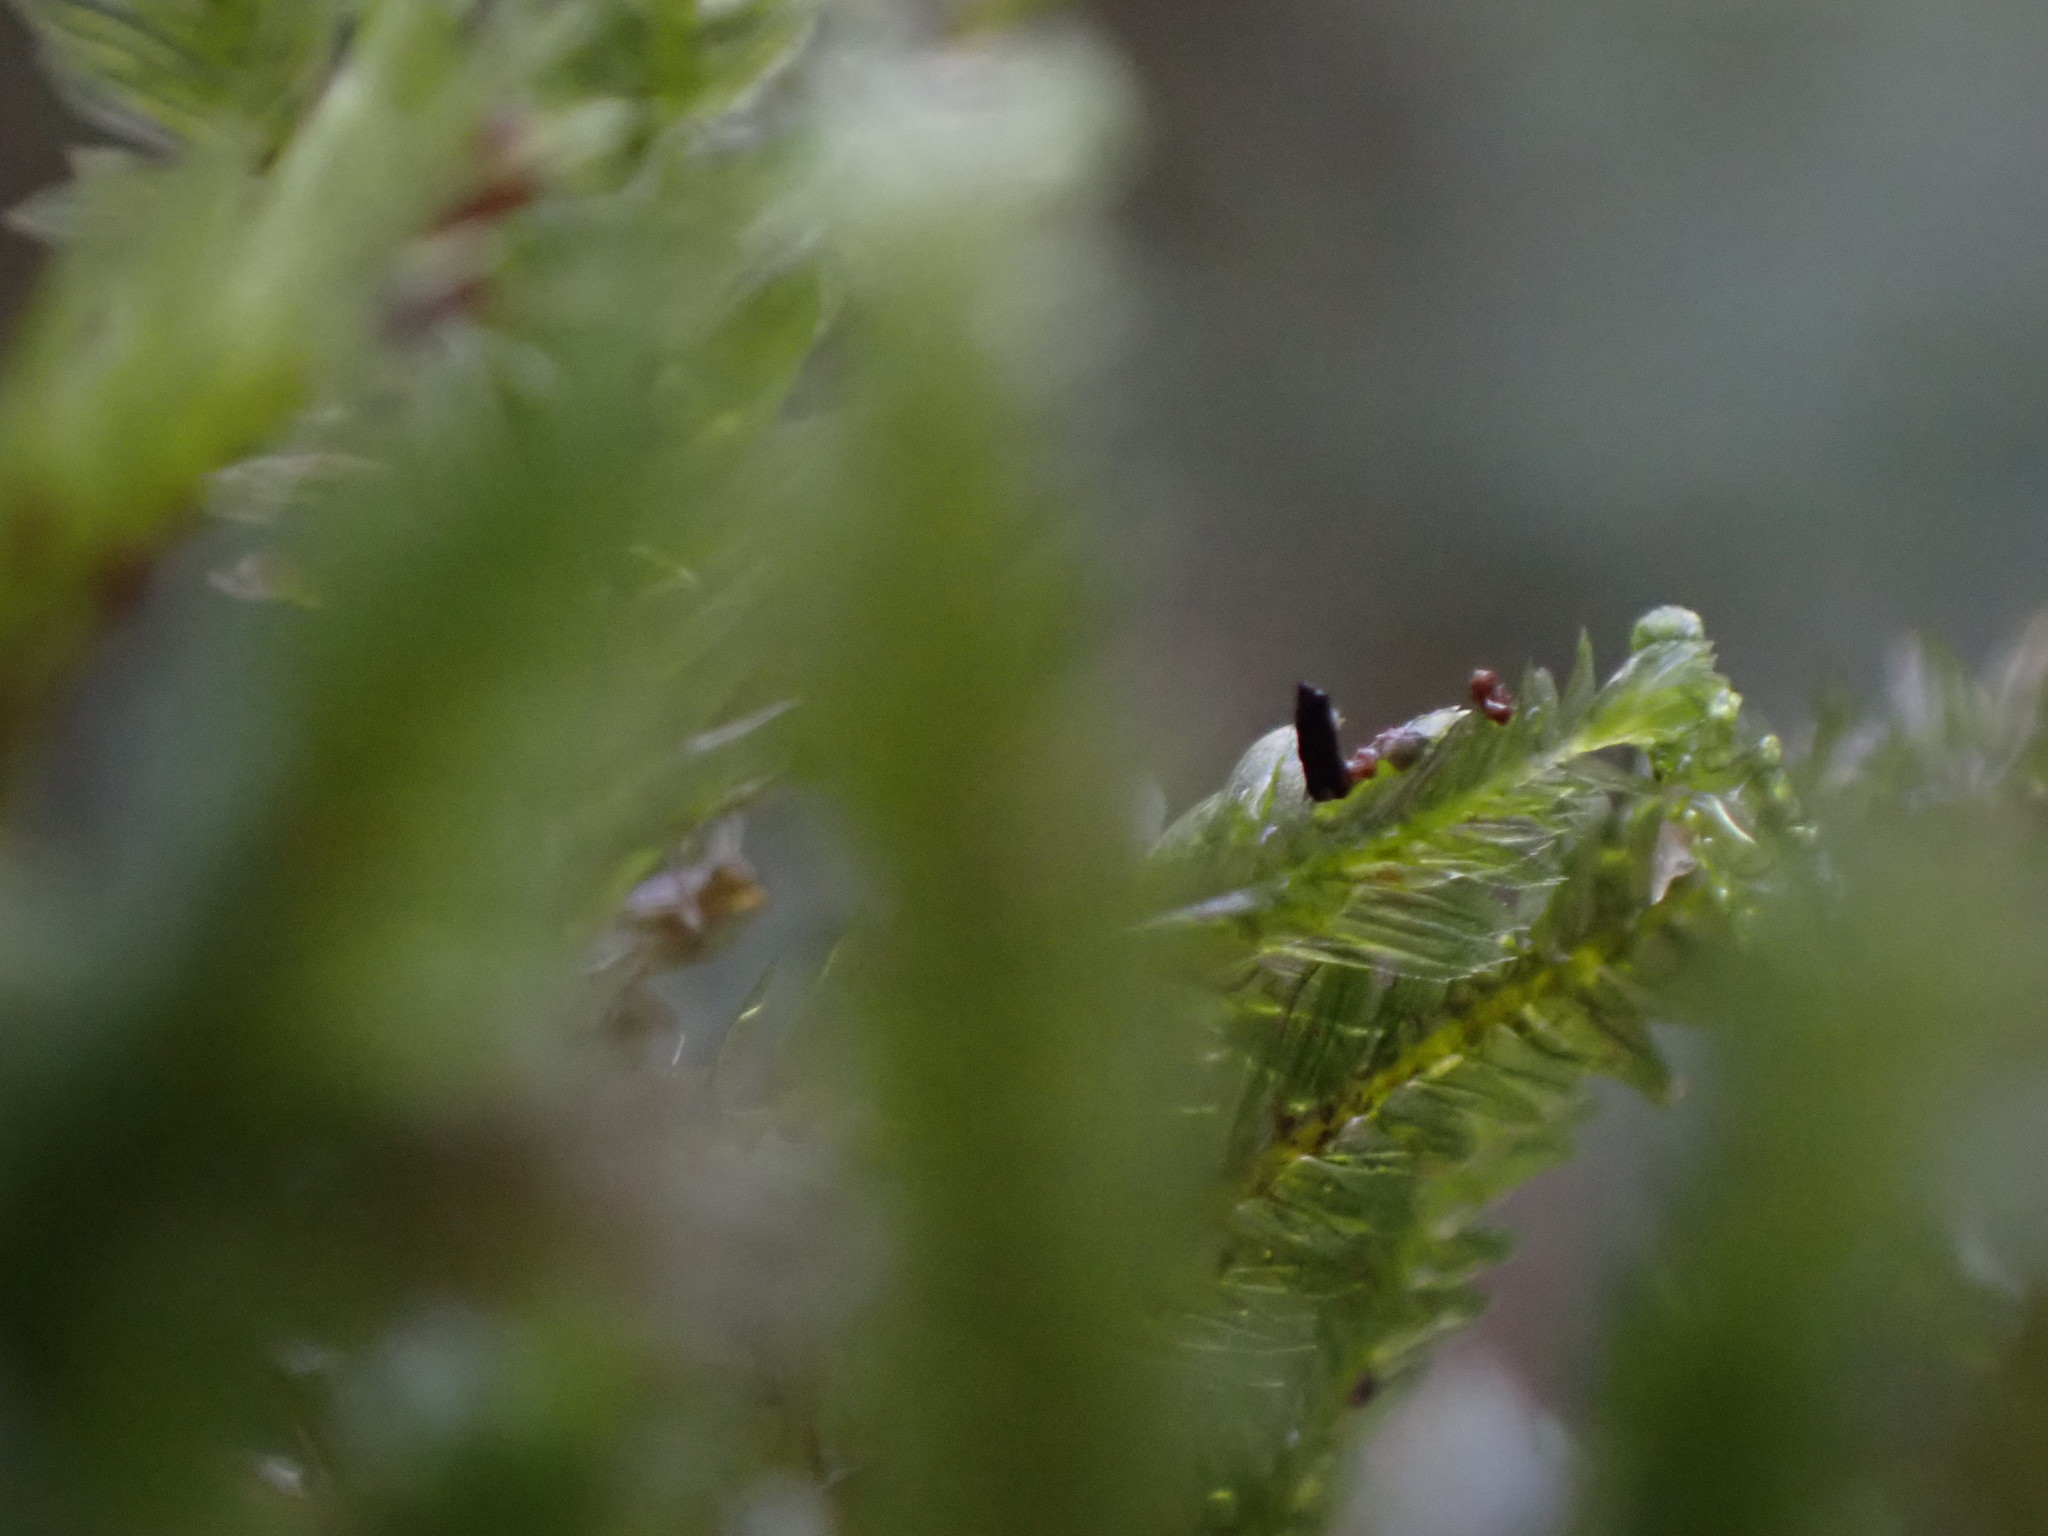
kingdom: Plantae
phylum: Bryophyta
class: Bryopsida
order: Hypnales
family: Neckeraceae
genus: Dannorrisia
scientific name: Dannorrisia bigelovii
